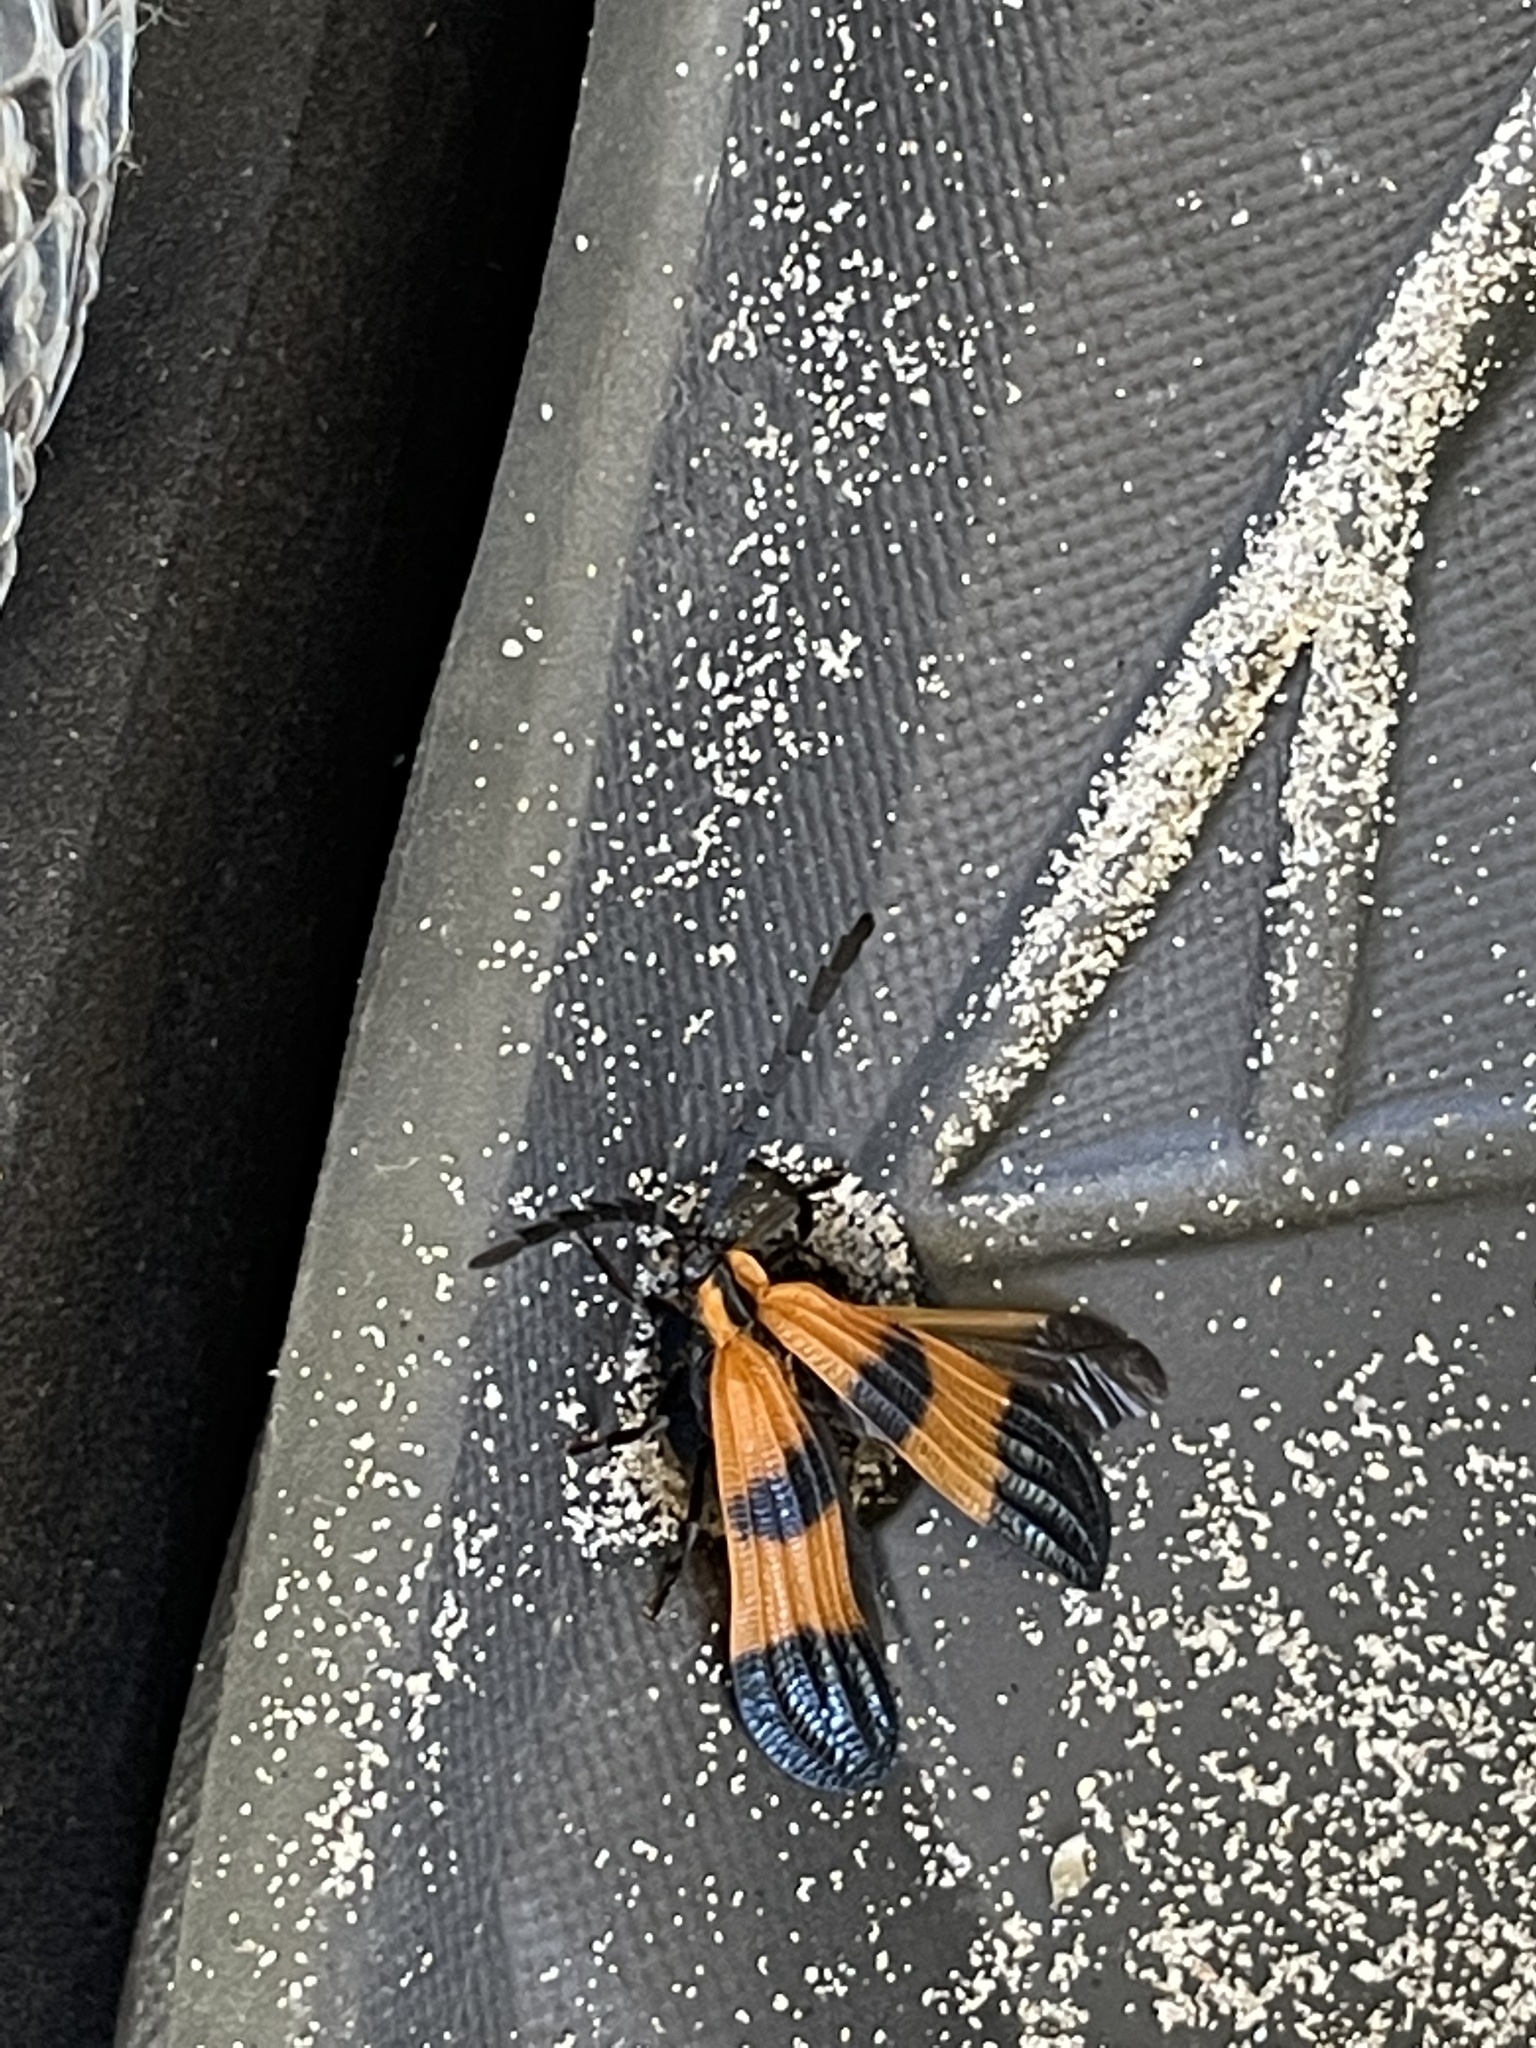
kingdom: Animalia
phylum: Arthropoda
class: Insecta
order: Coleoptera
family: Lycidae
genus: Calopteron
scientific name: Calopteron terminale
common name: End band net-winged beetle
